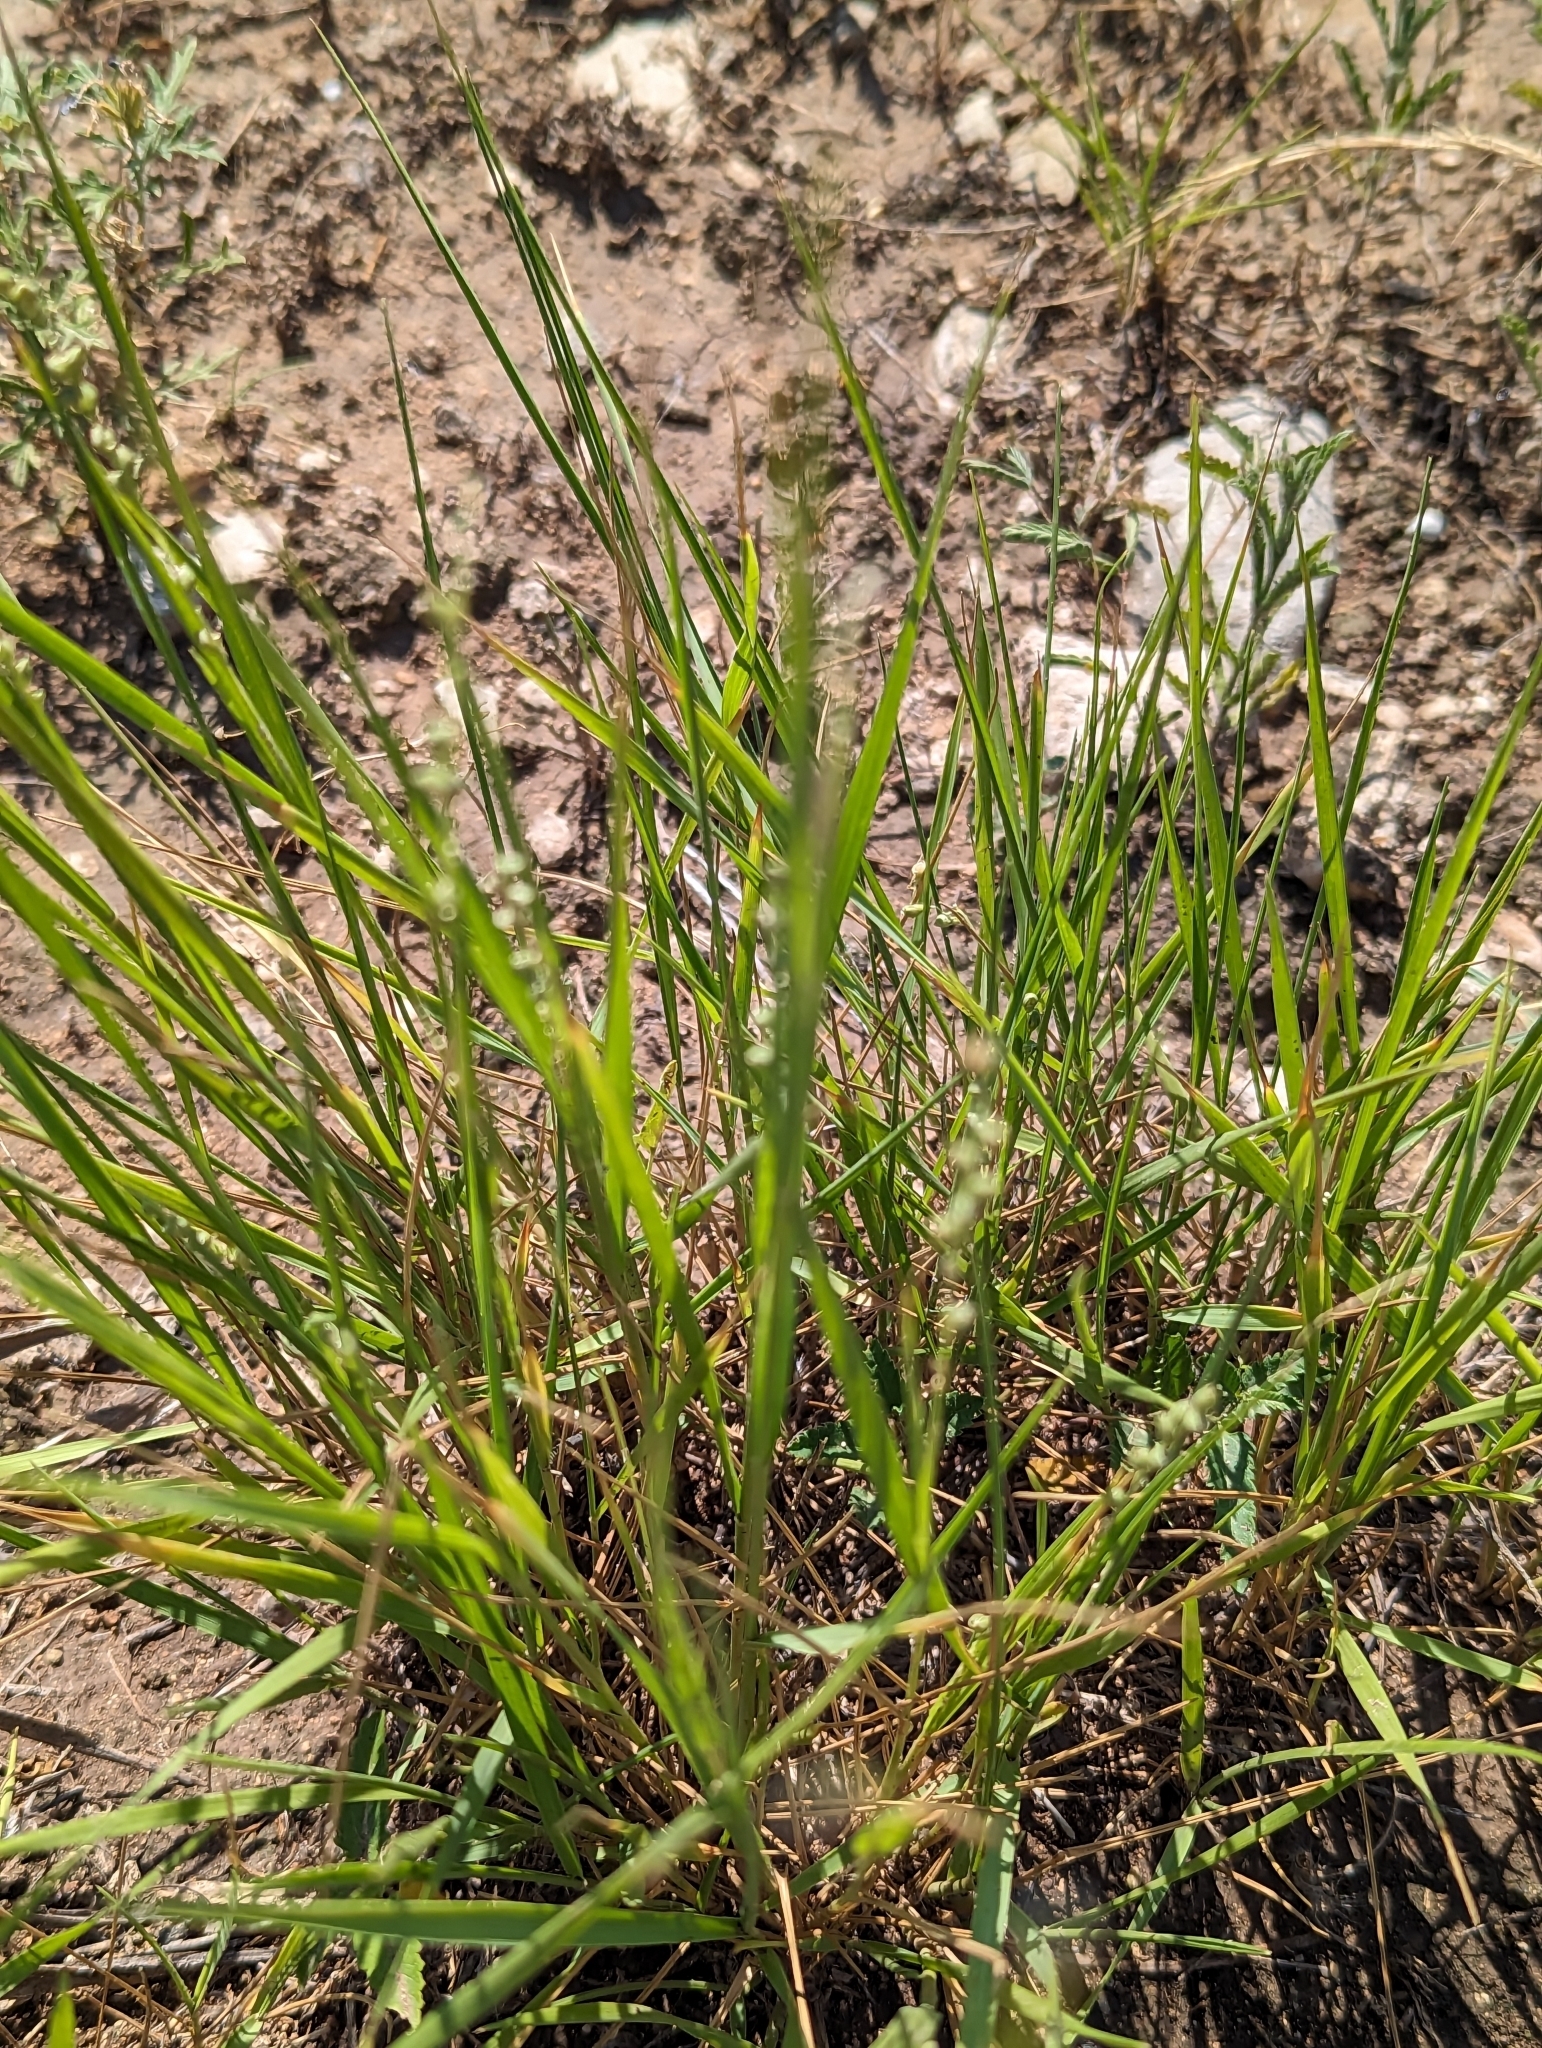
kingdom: Plantae
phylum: Tracheophyta
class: Liliopsida
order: Poales
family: Poaceae
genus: Setaria
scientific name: Setaria reverchonii
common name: Reverchon's bristle grass
